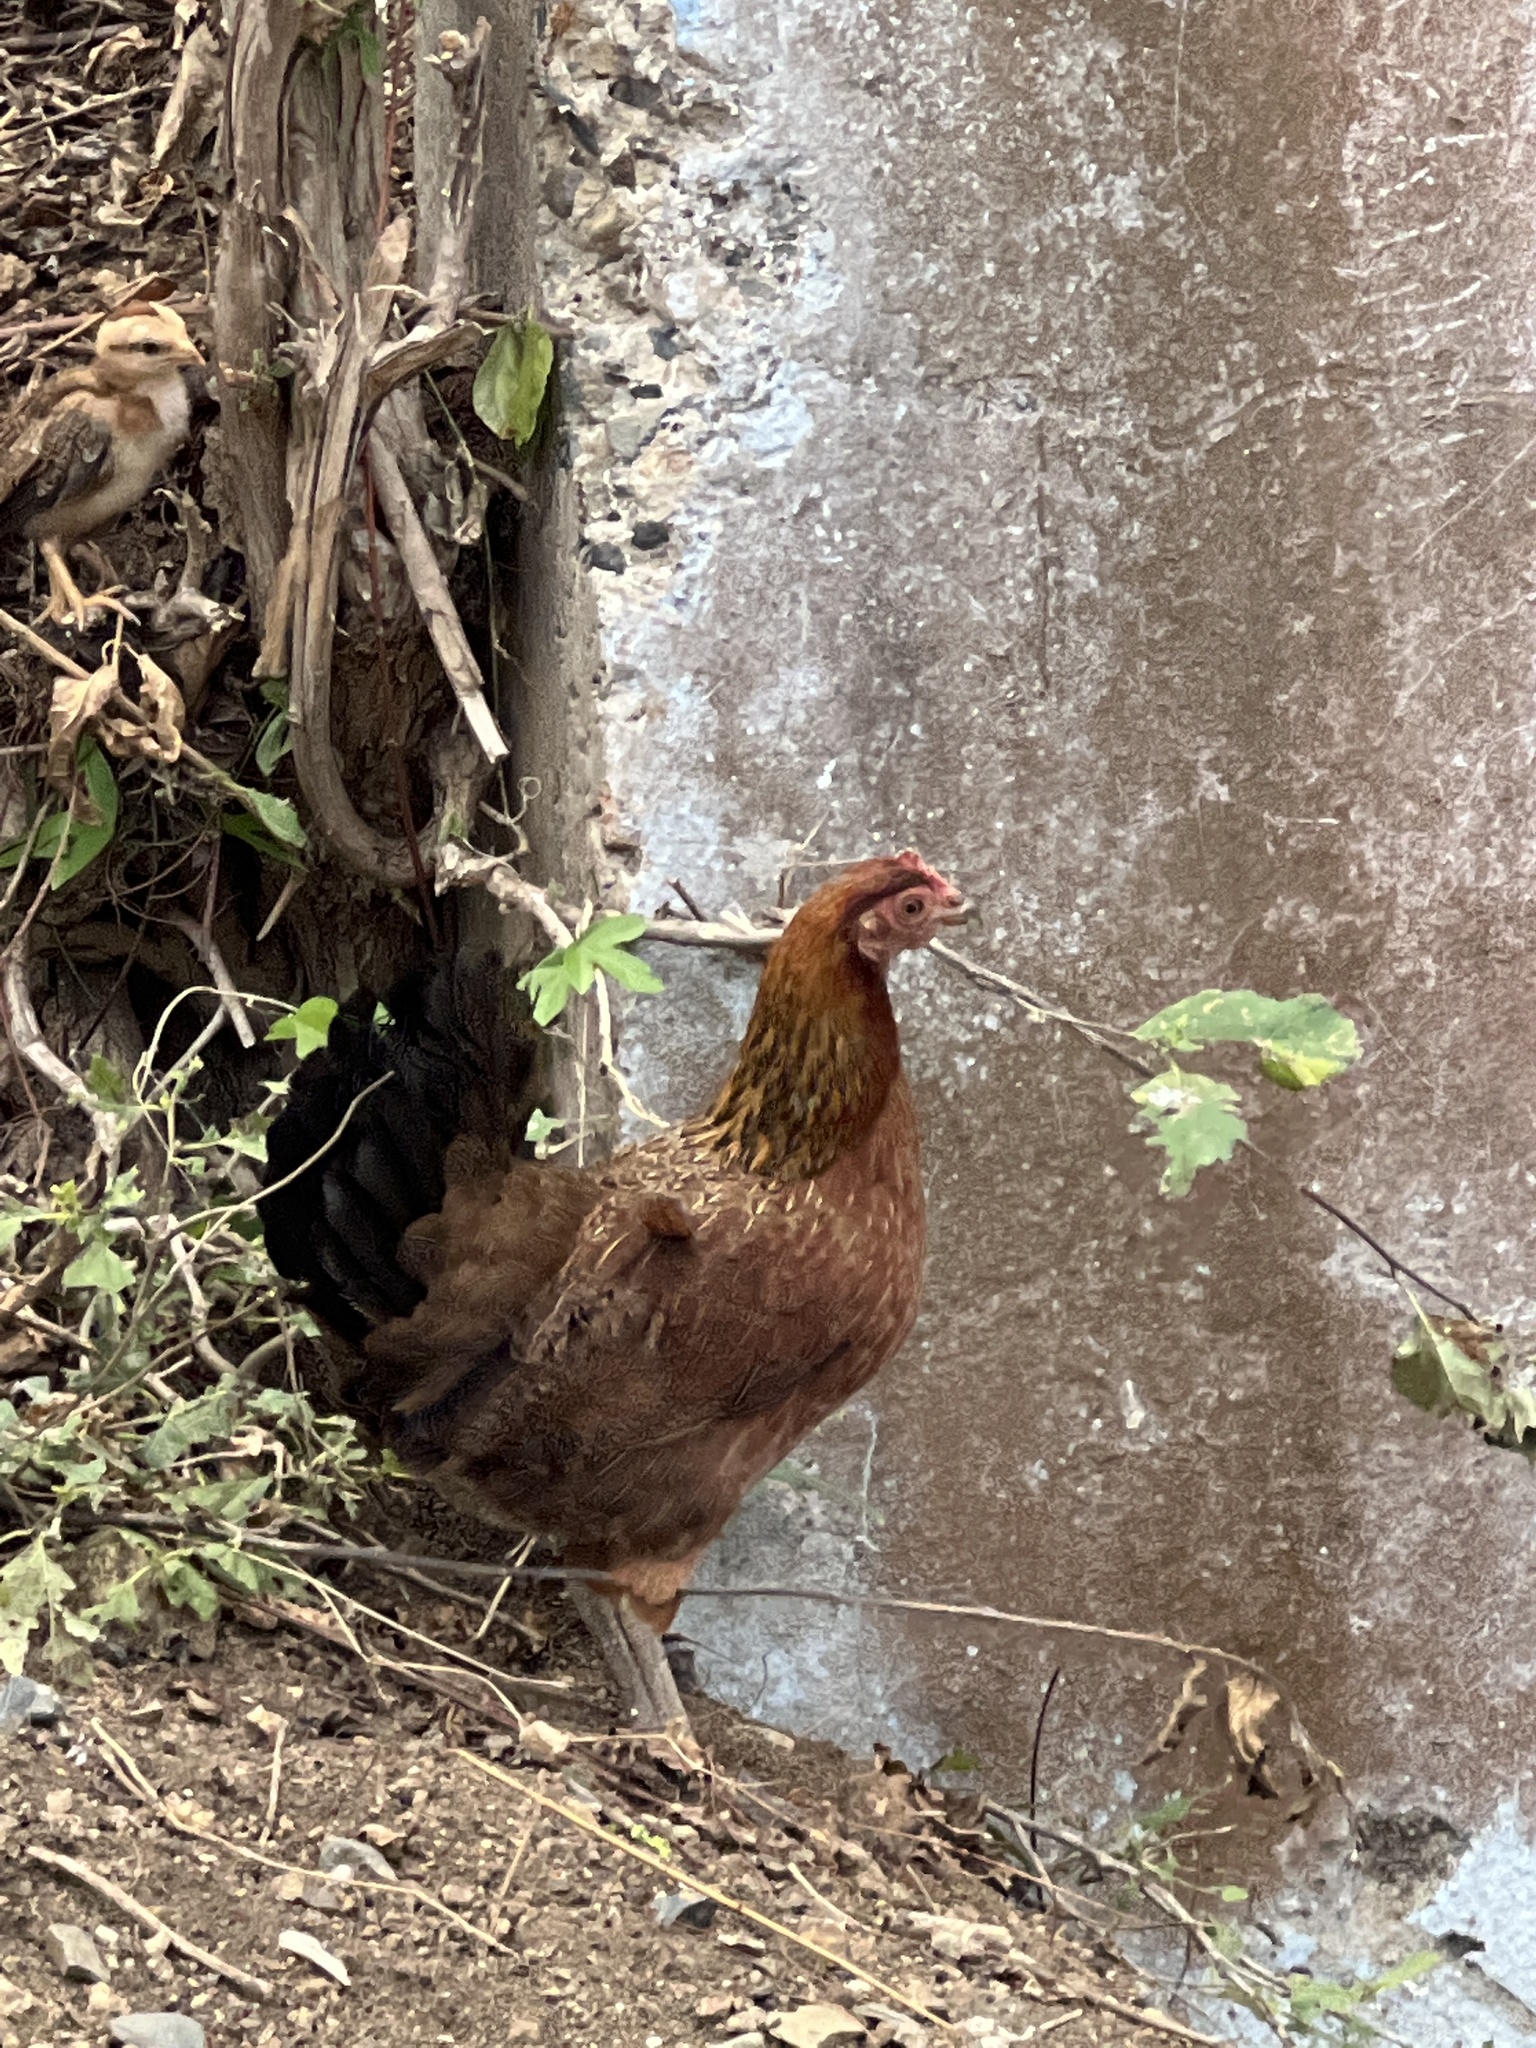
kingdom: Animalia
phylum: Chordata
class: Aves
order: Galliformes
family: Phasianidae
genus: Gallus
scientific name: Gallus gallus
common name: Red junglefowl
